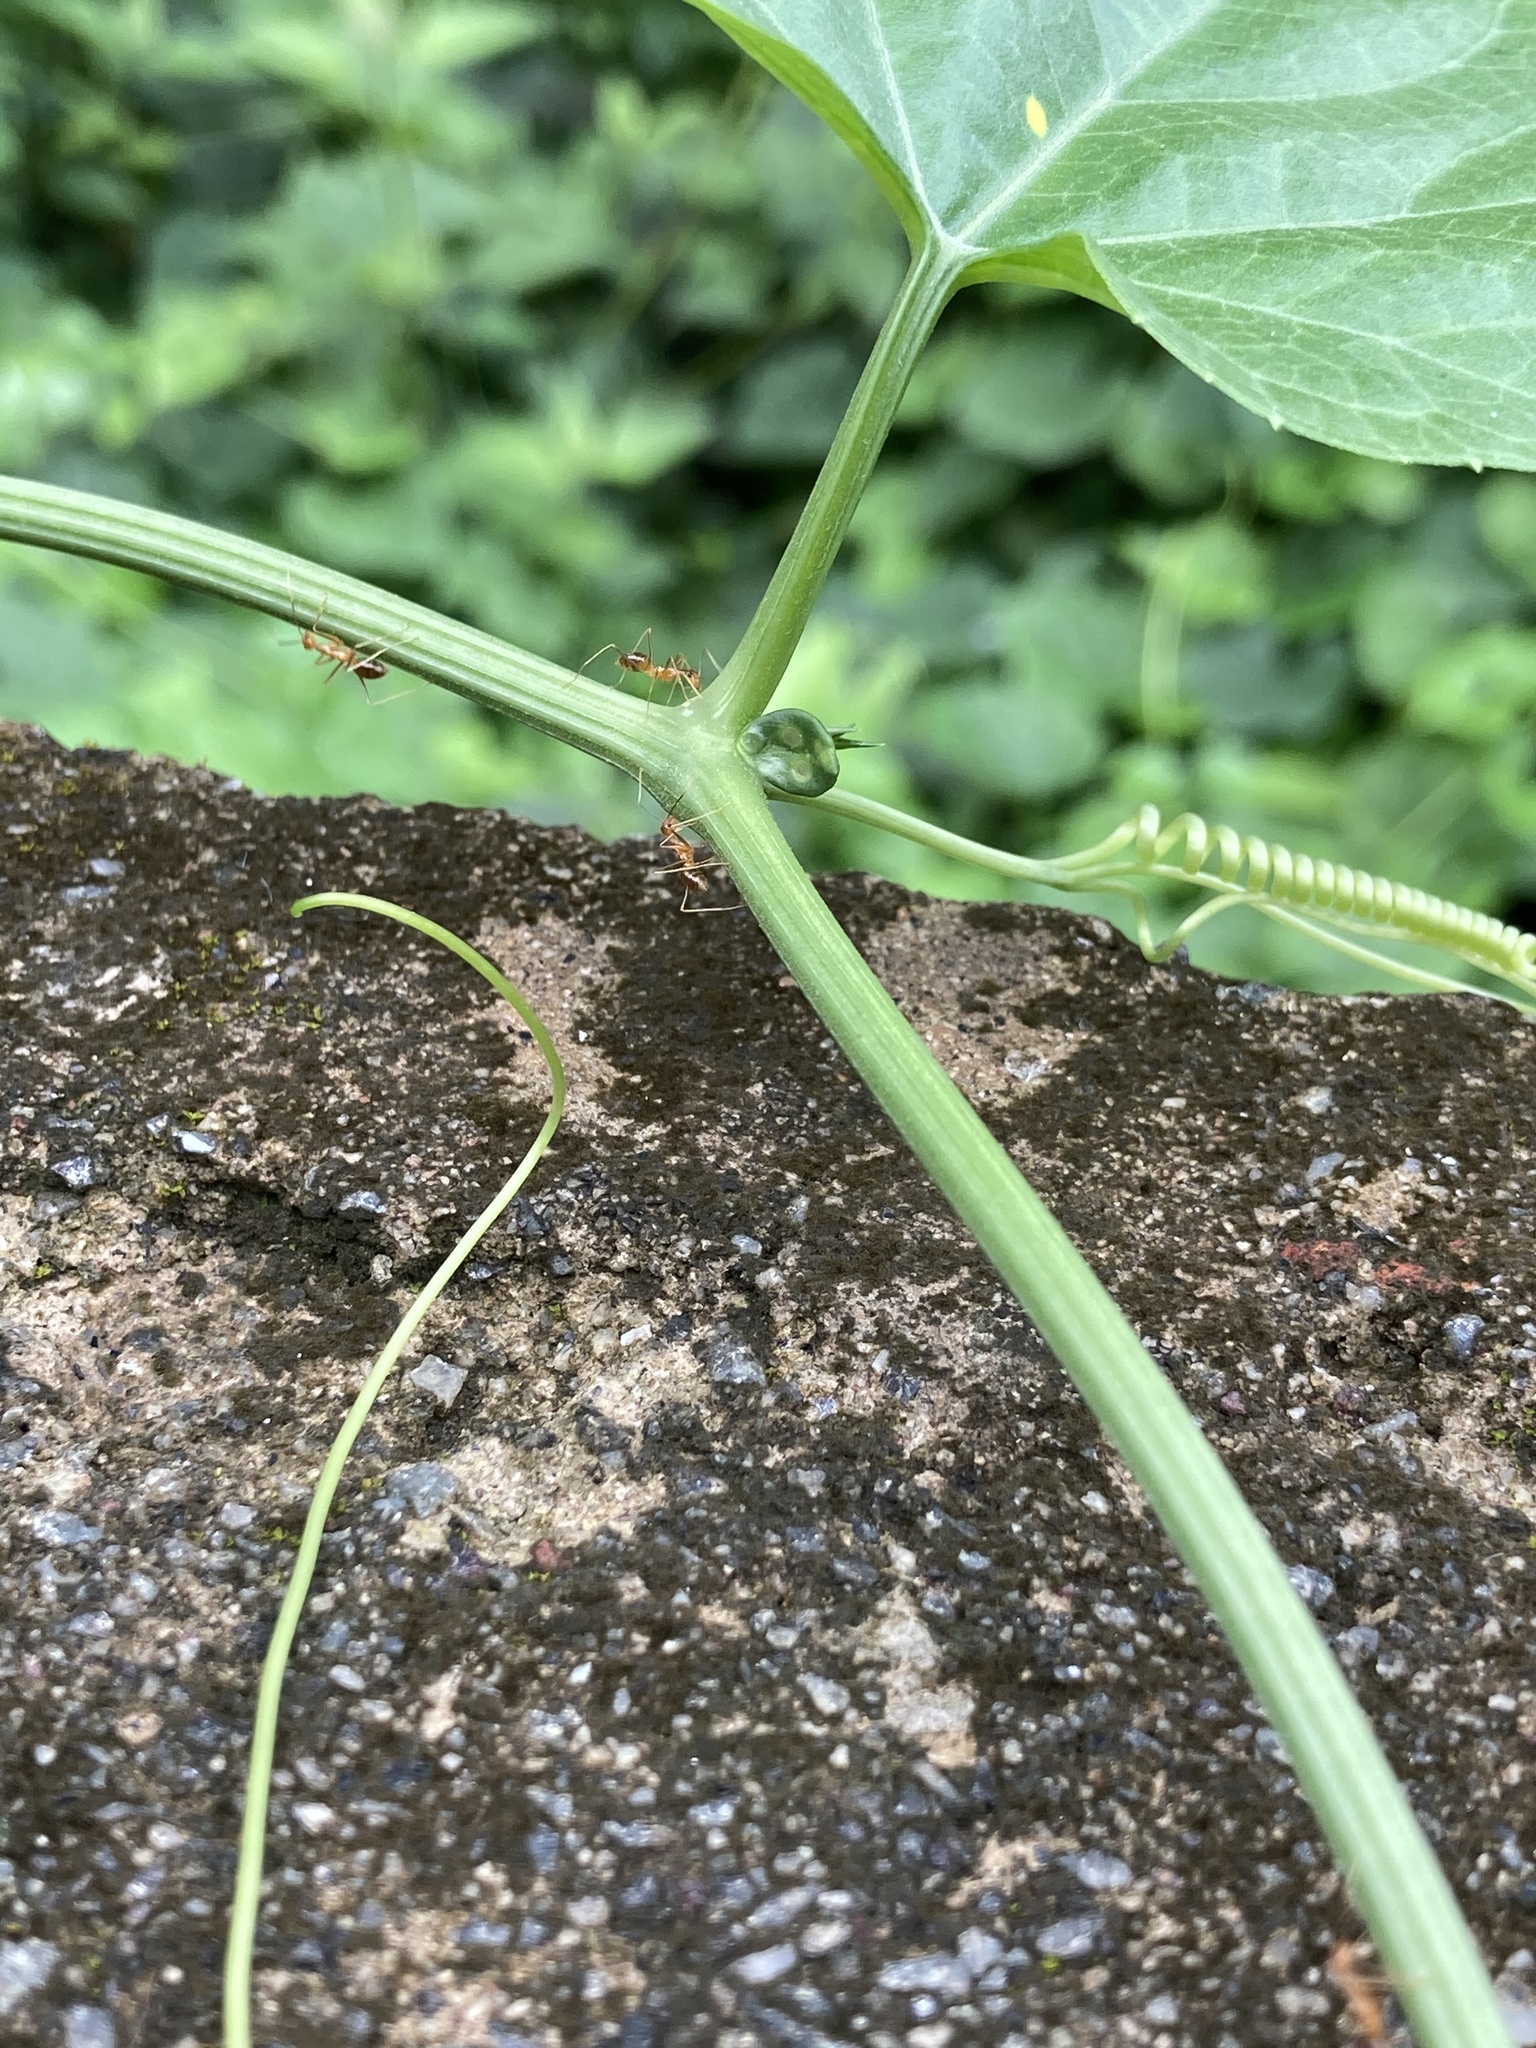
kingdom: Animalia
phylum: Arthropoda
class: Insecta
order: Hymenoptera
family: Formicidae
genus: Anoplolepis
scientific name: Anoplolepis gracilipes
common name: Ant
